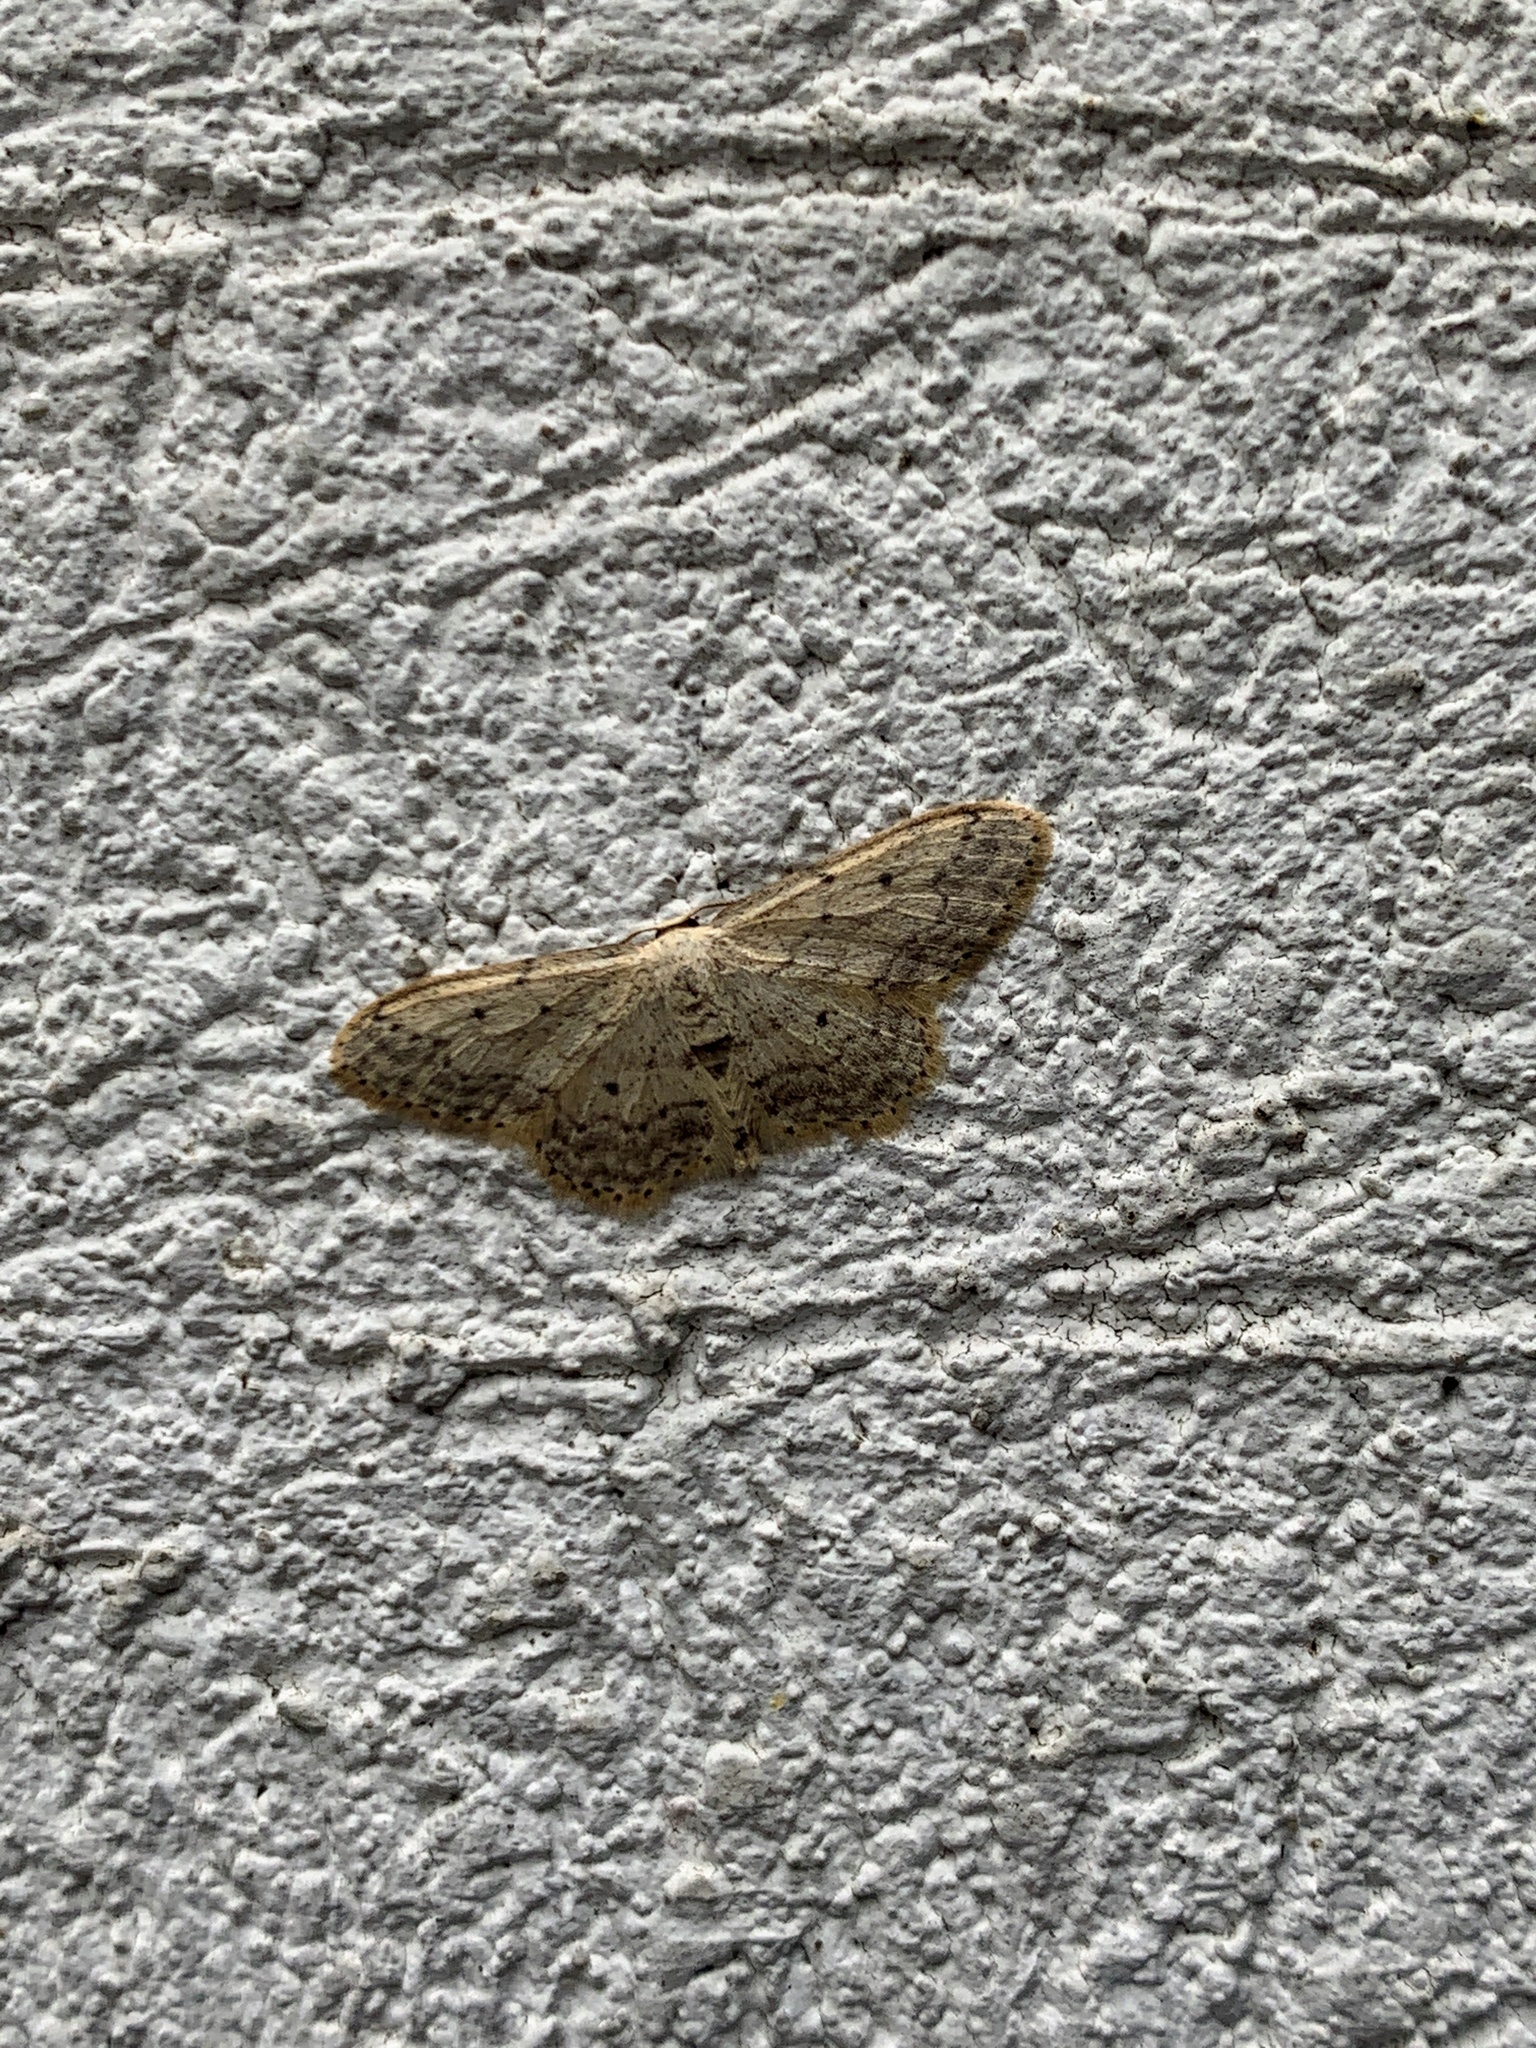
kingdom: Animalia
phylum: Arthropoda
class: Insecta
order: Lepidoptera
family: Geometridae
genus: Idaea
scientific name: Idaea seriata
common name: Small dusty wave
